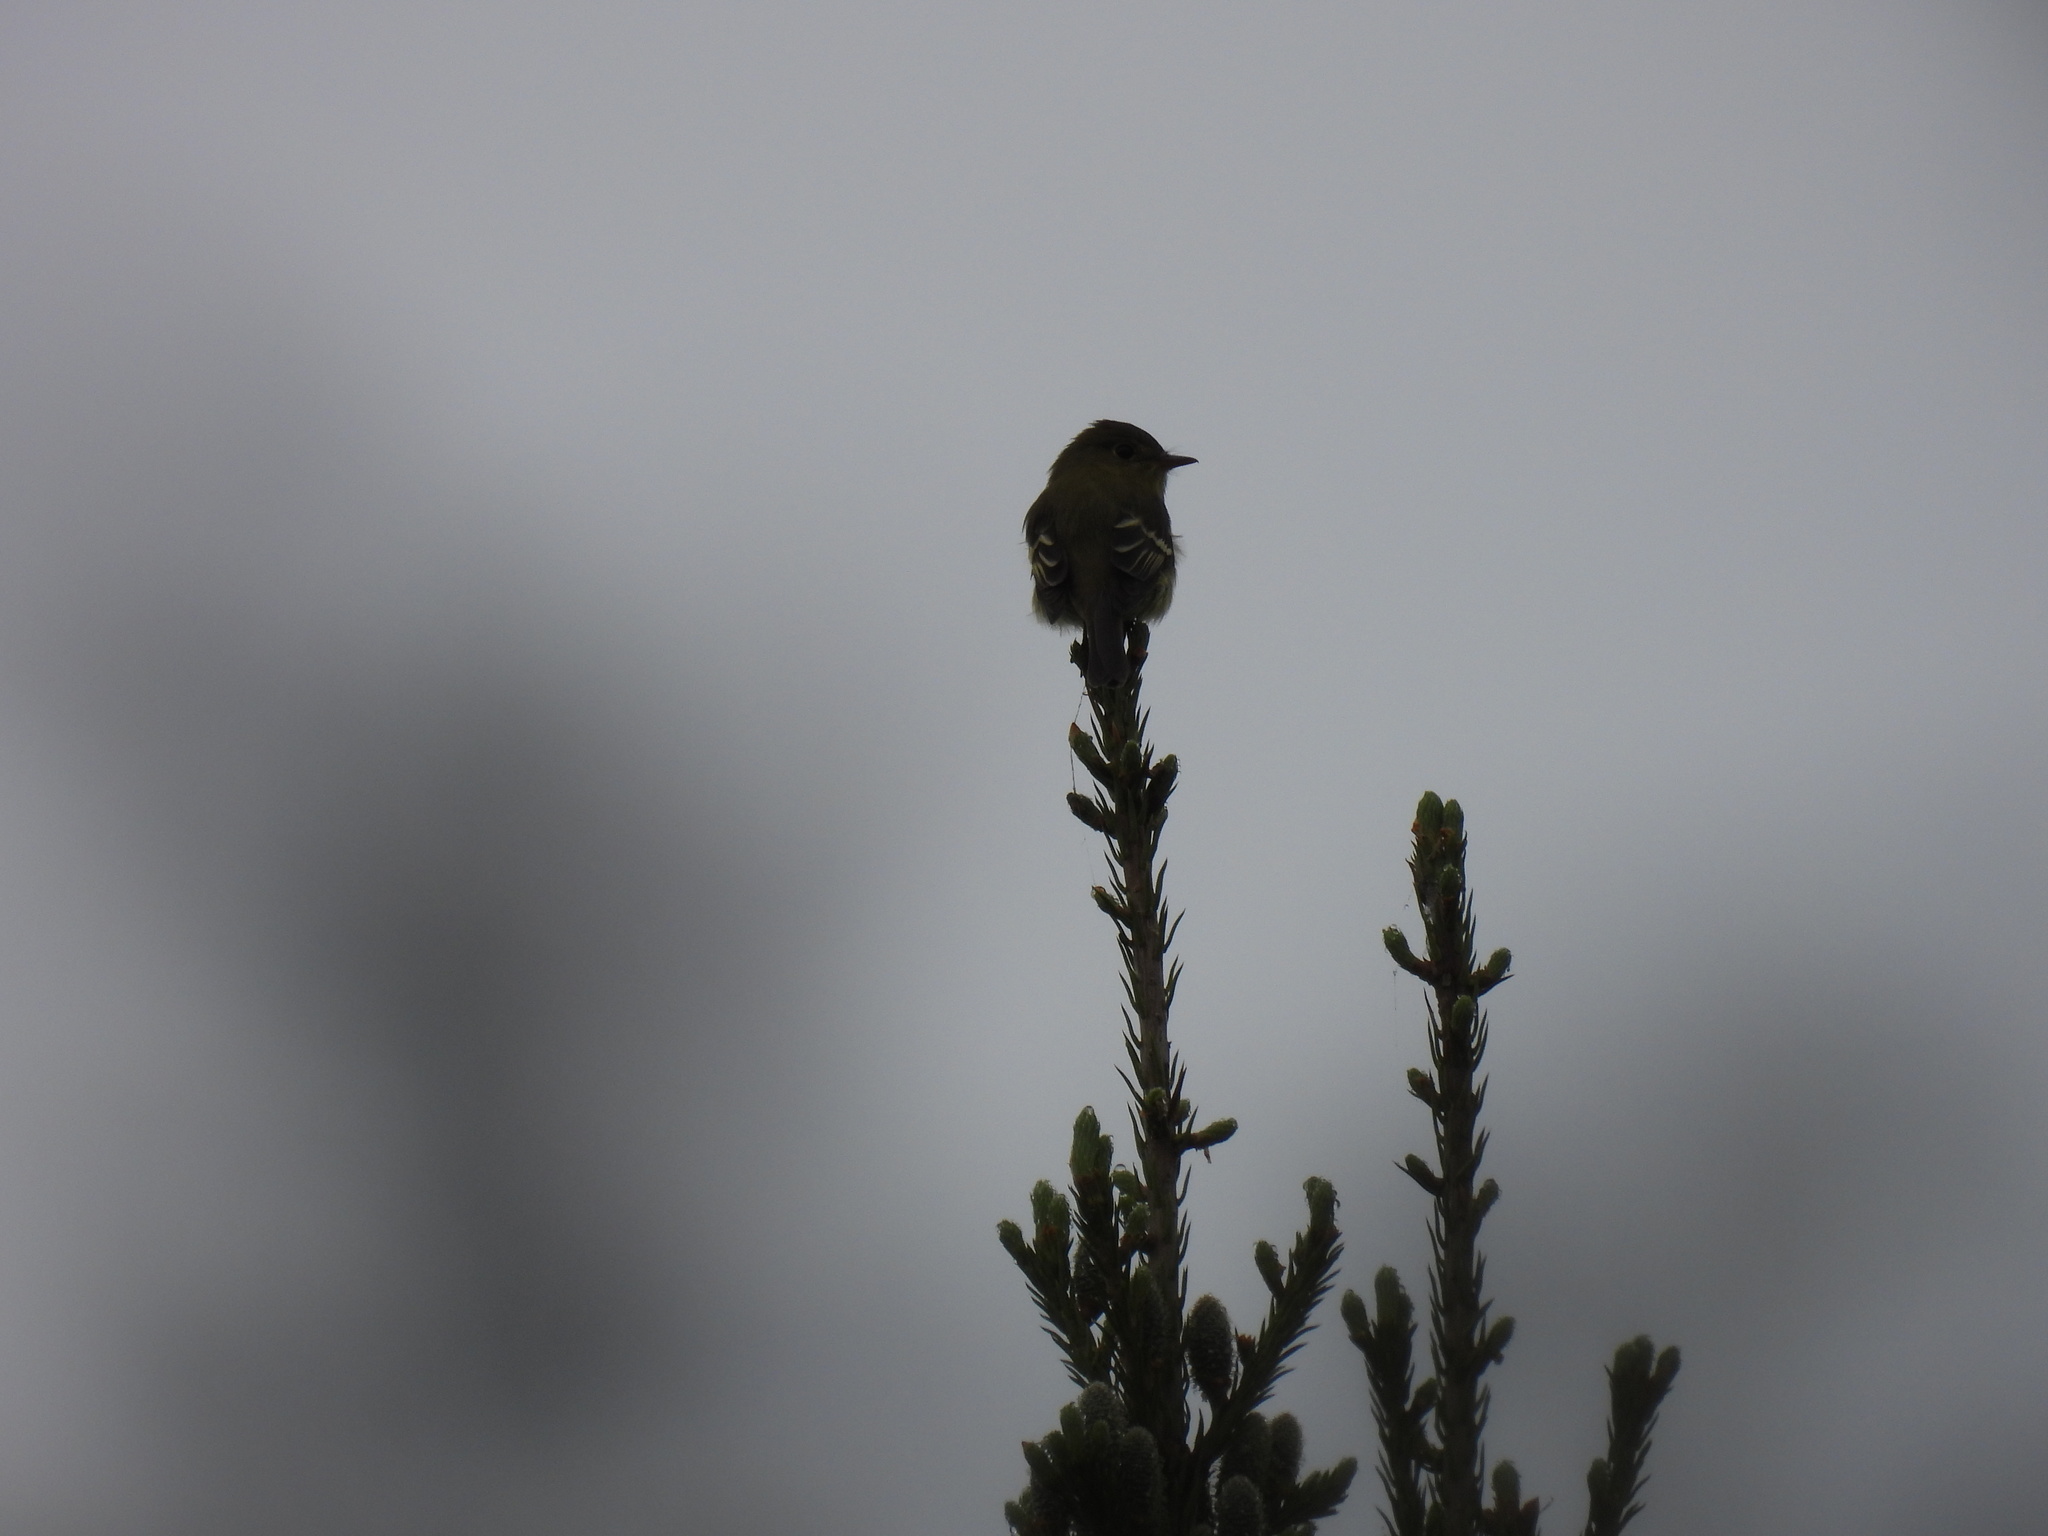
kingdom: Animalia
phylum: Chordata
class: Aves
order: Passeriformes
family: Tyrannidae
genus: Empidonax
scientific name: Empidonax flaviventris
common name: Yellow-bellied flycatcher
